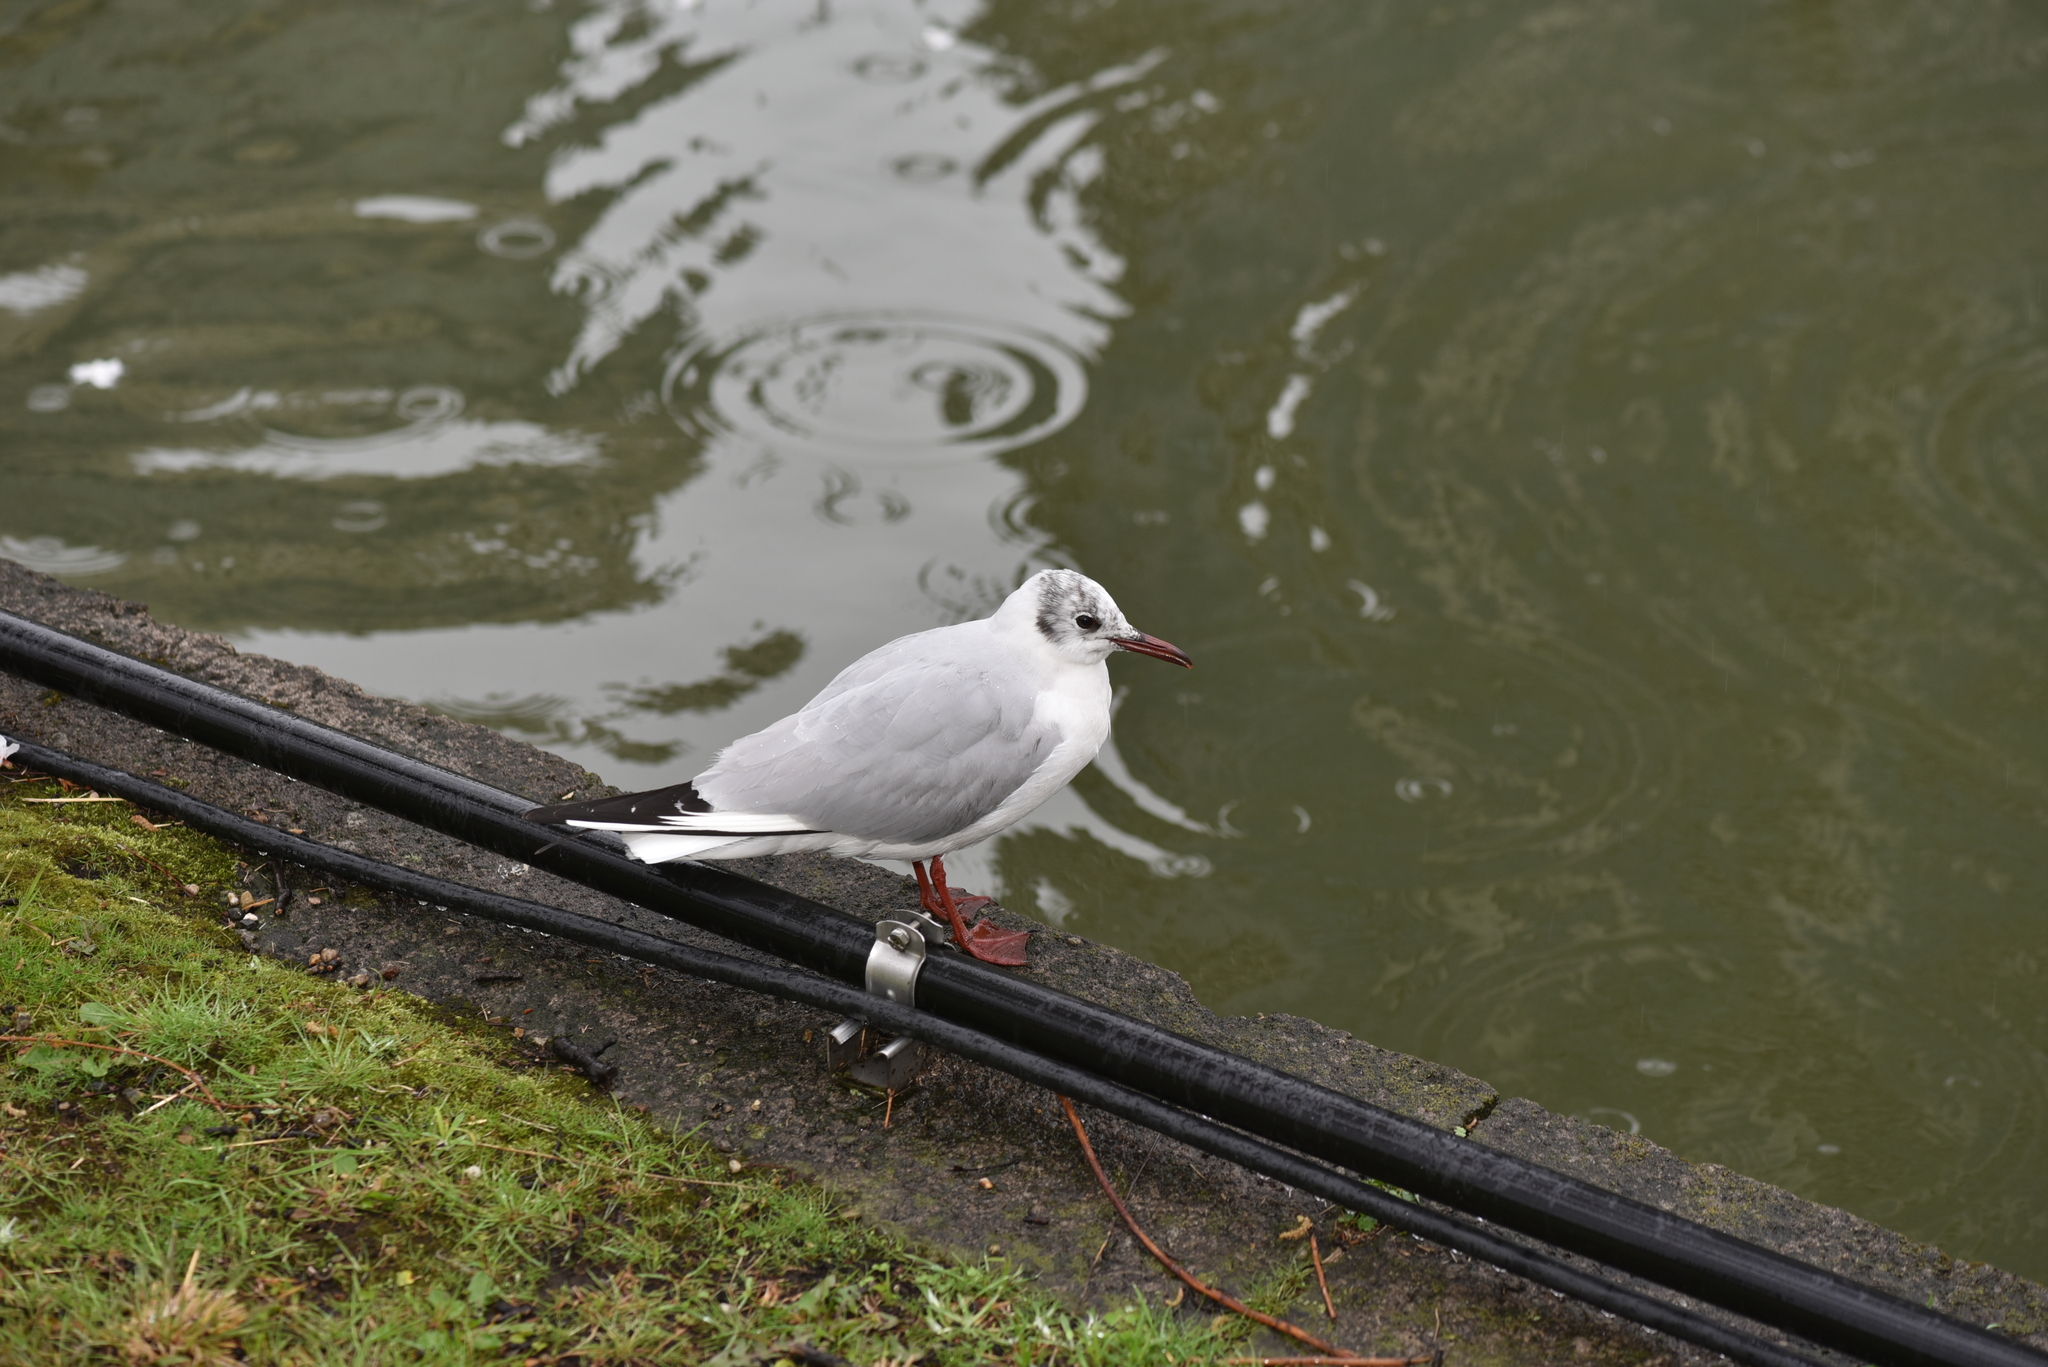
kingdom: Animalia
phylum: Chordata
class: Aves
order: Charadriiformes
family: Laridae
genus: Chroicocephalus
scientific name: Chroicocephalus ridibundus
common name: Black-headed gull
